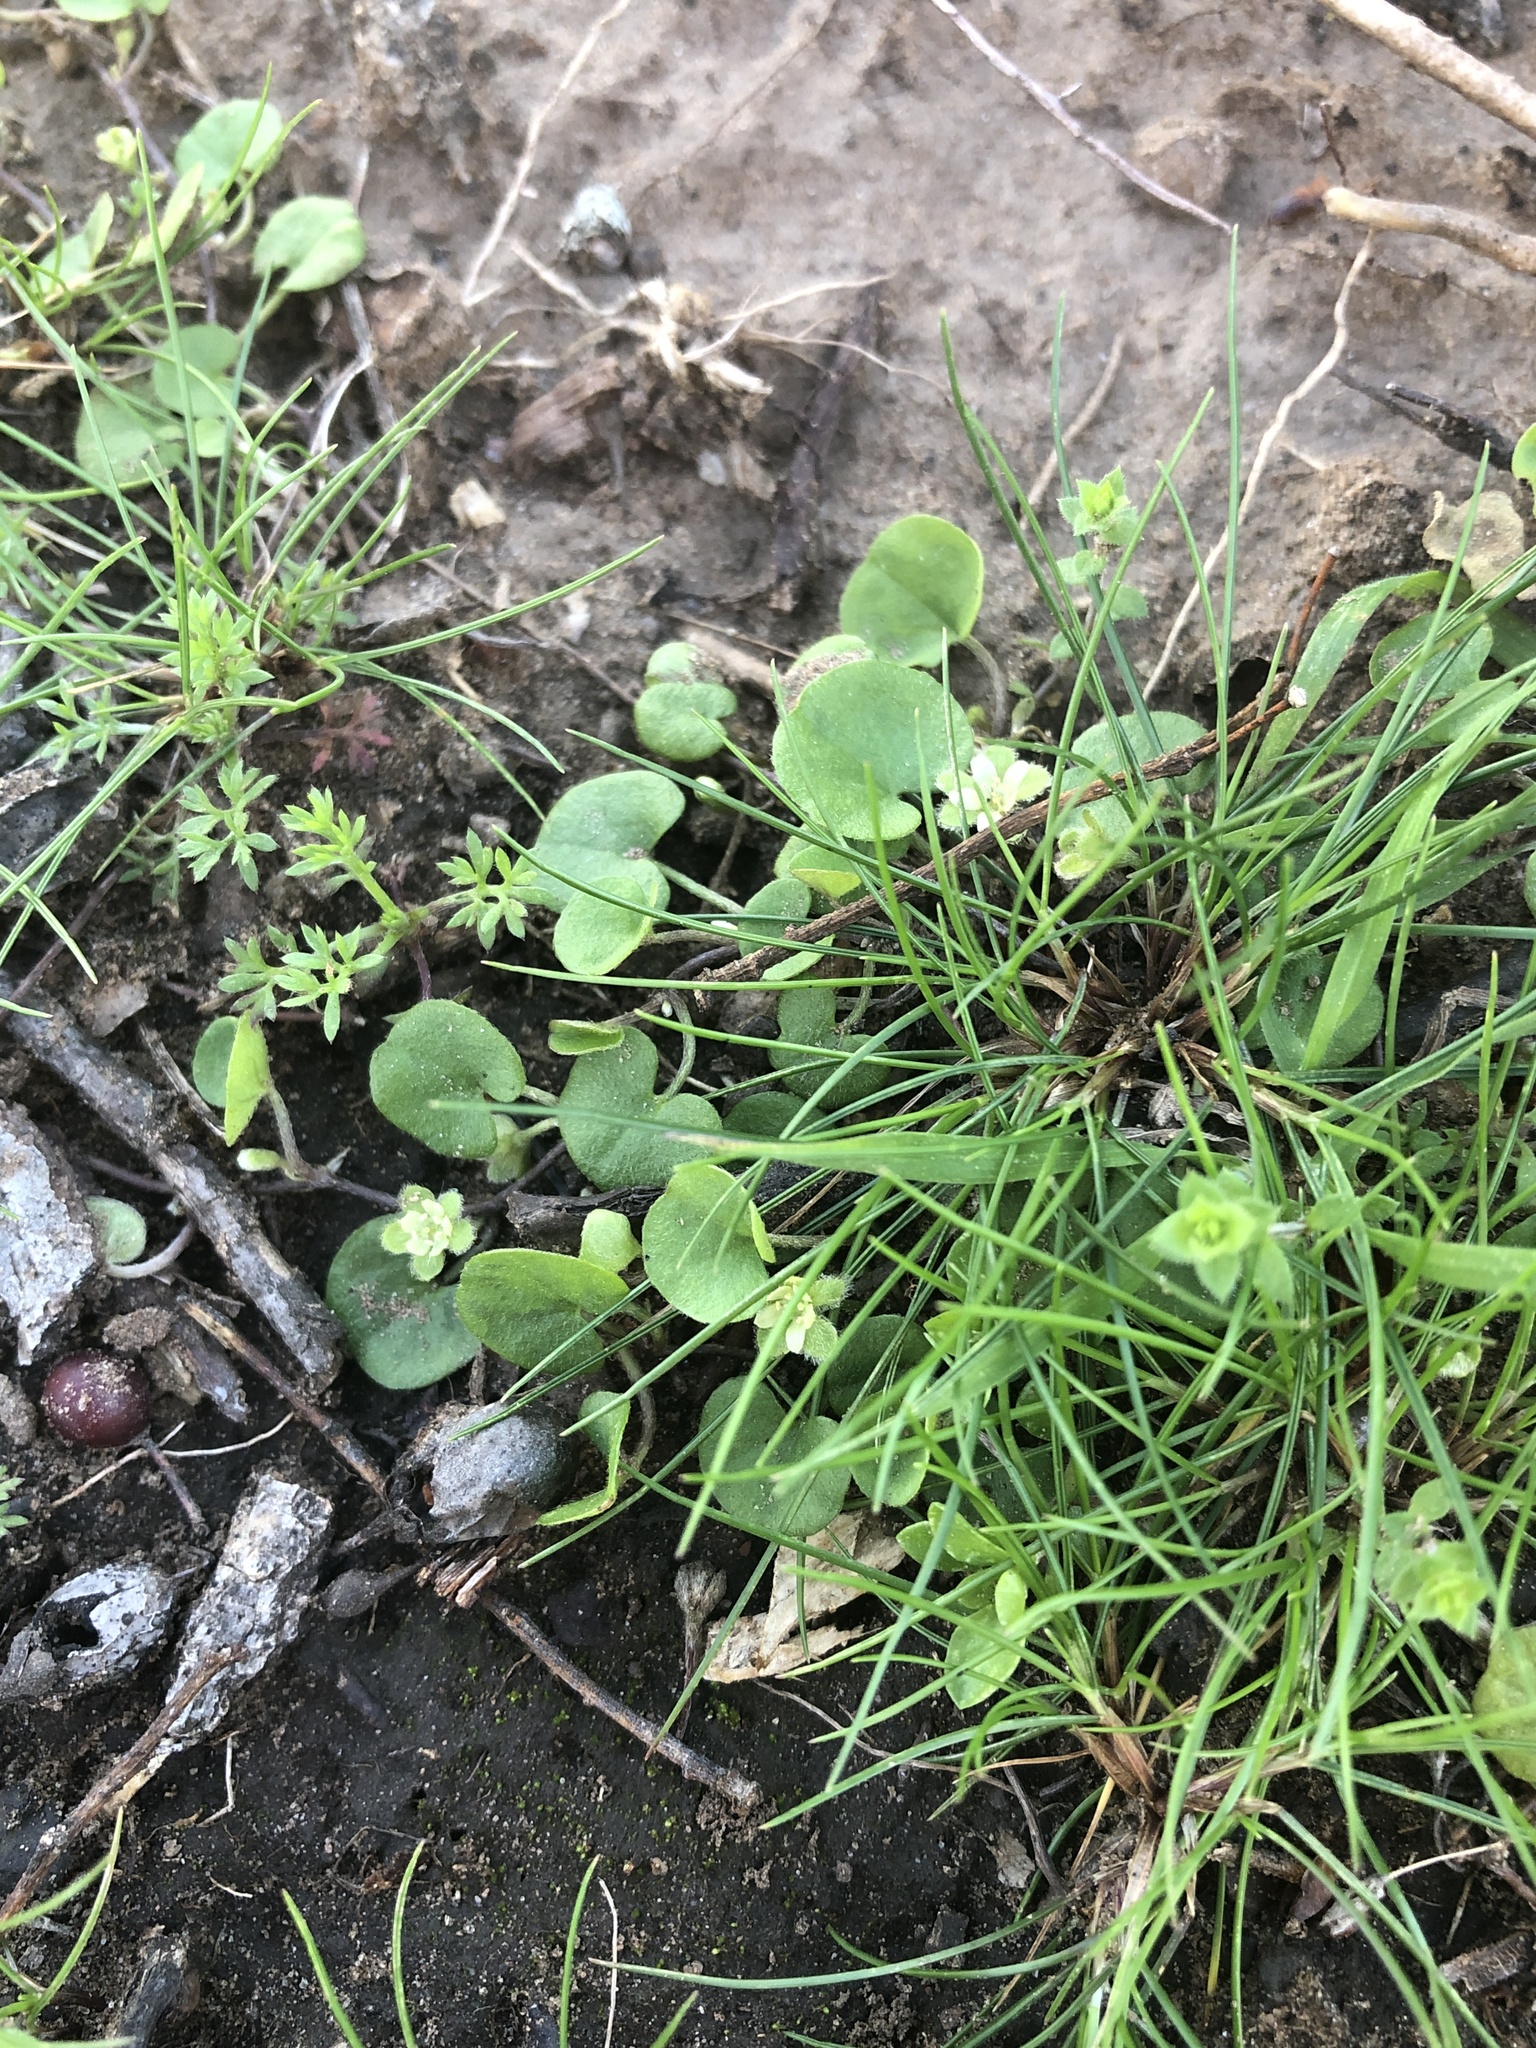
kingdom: Plantae
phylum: Tracheophyta
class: Magnoliopsida
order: Solanales
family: Convolvulaceae
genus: Dichondra
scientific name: Dichondra carolinensis
